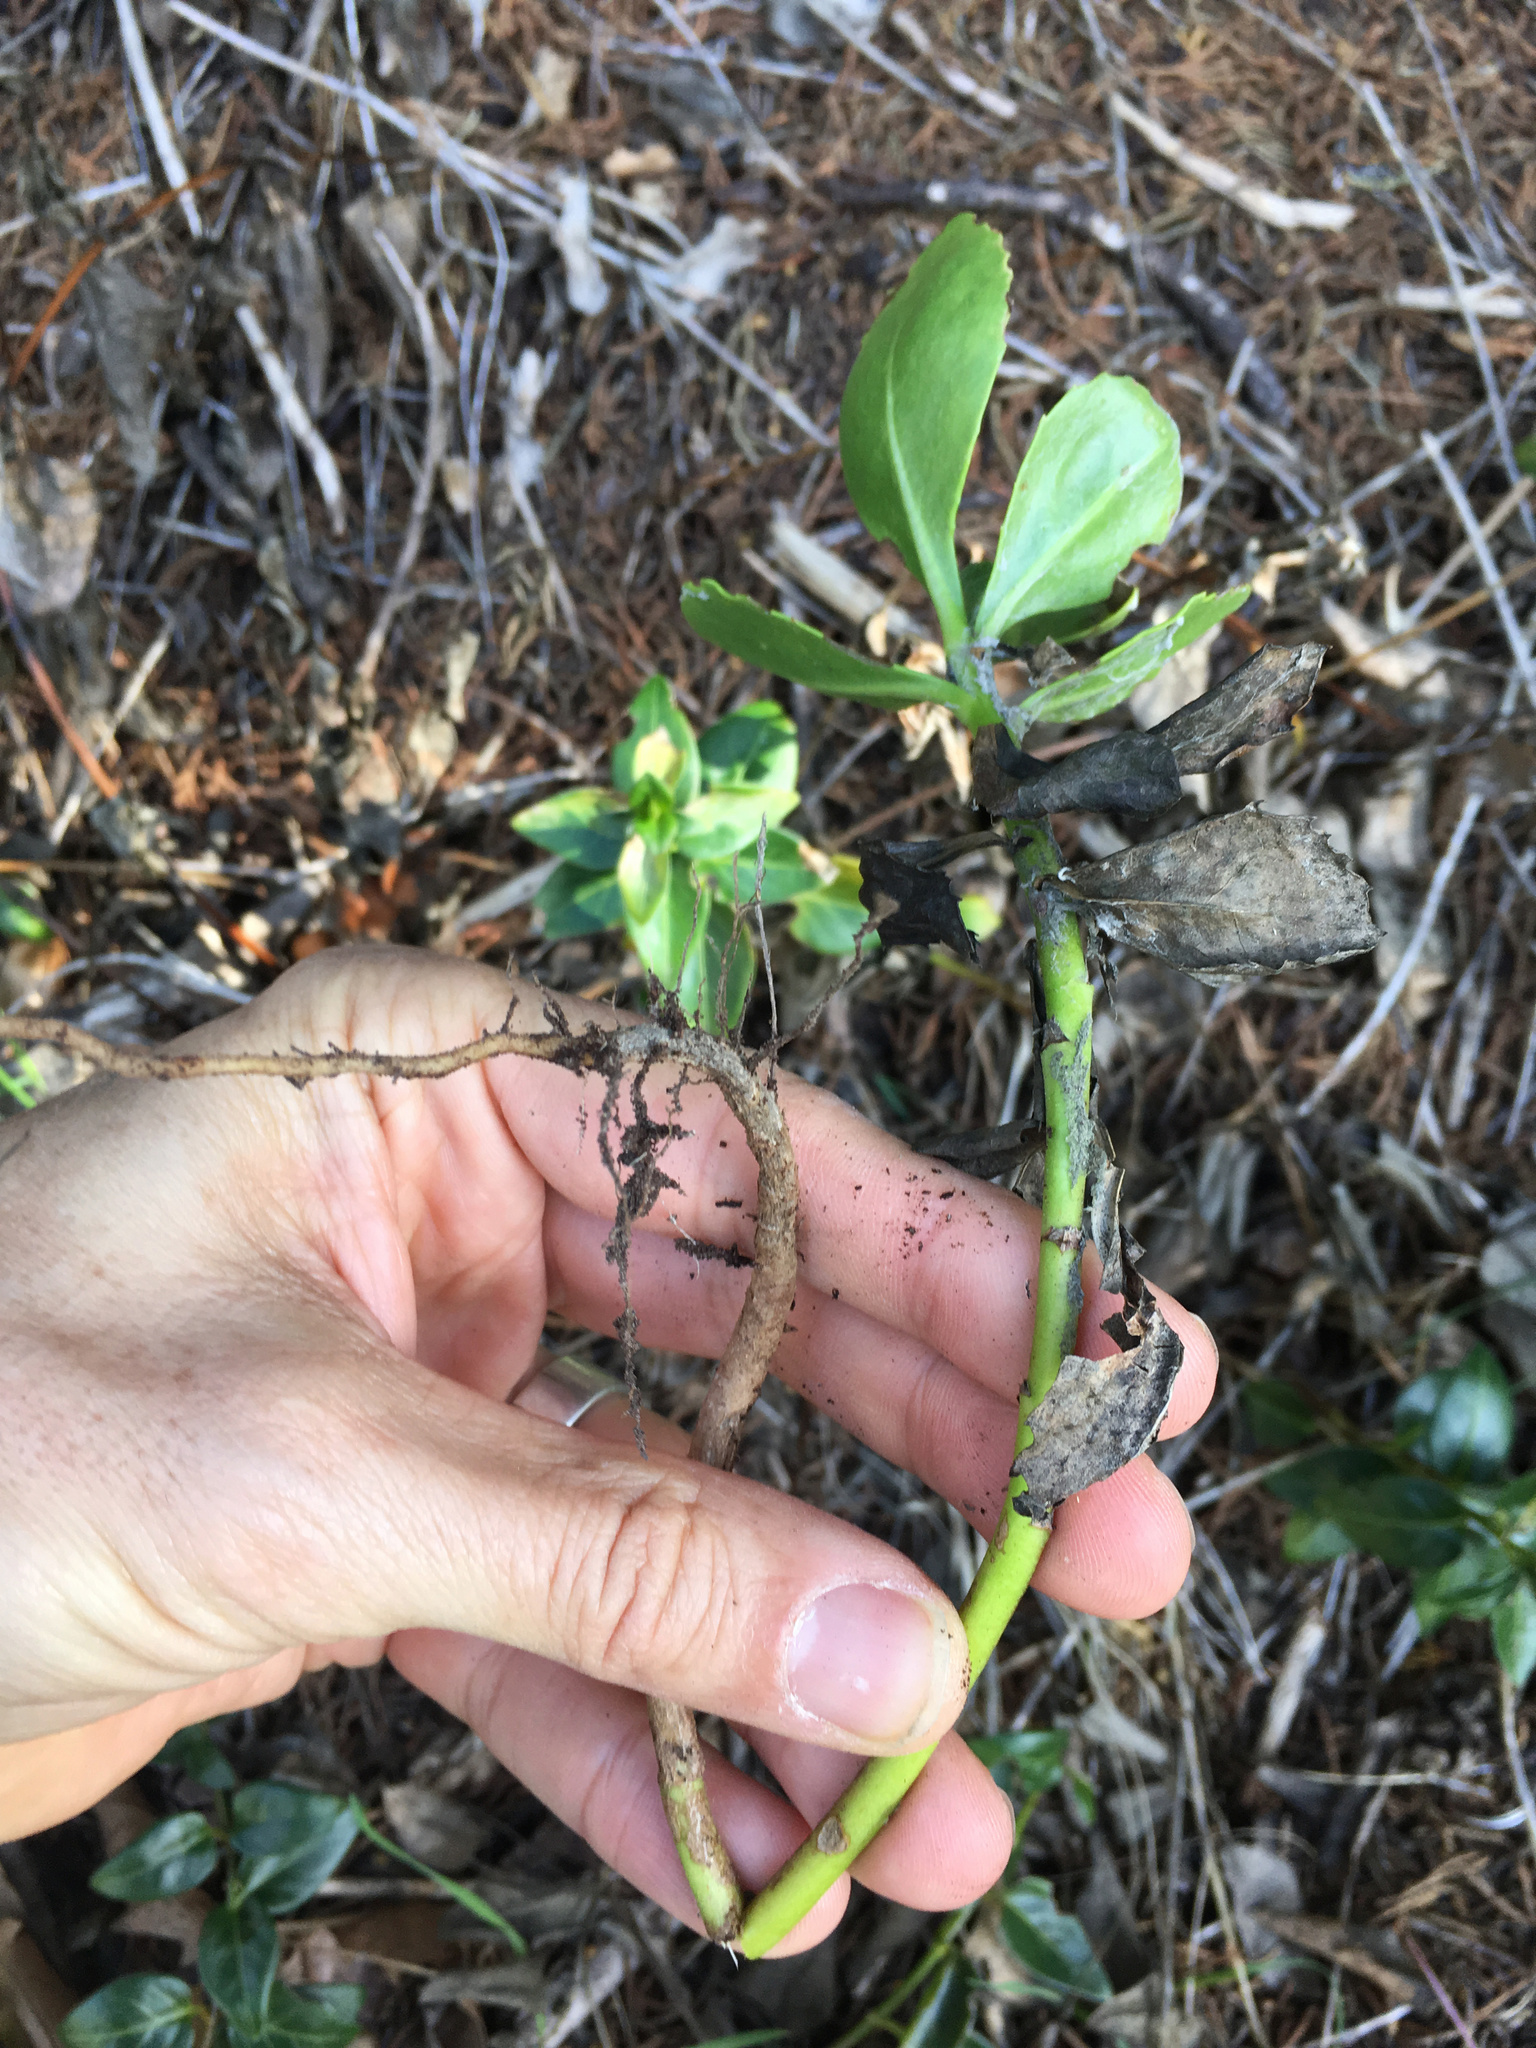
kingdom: Plantae
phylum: Tracheophyta
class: Magnoliopsida
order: Asterales
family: Asteraceae
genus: Osteospermum
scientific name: Osteospermum moniliferum
